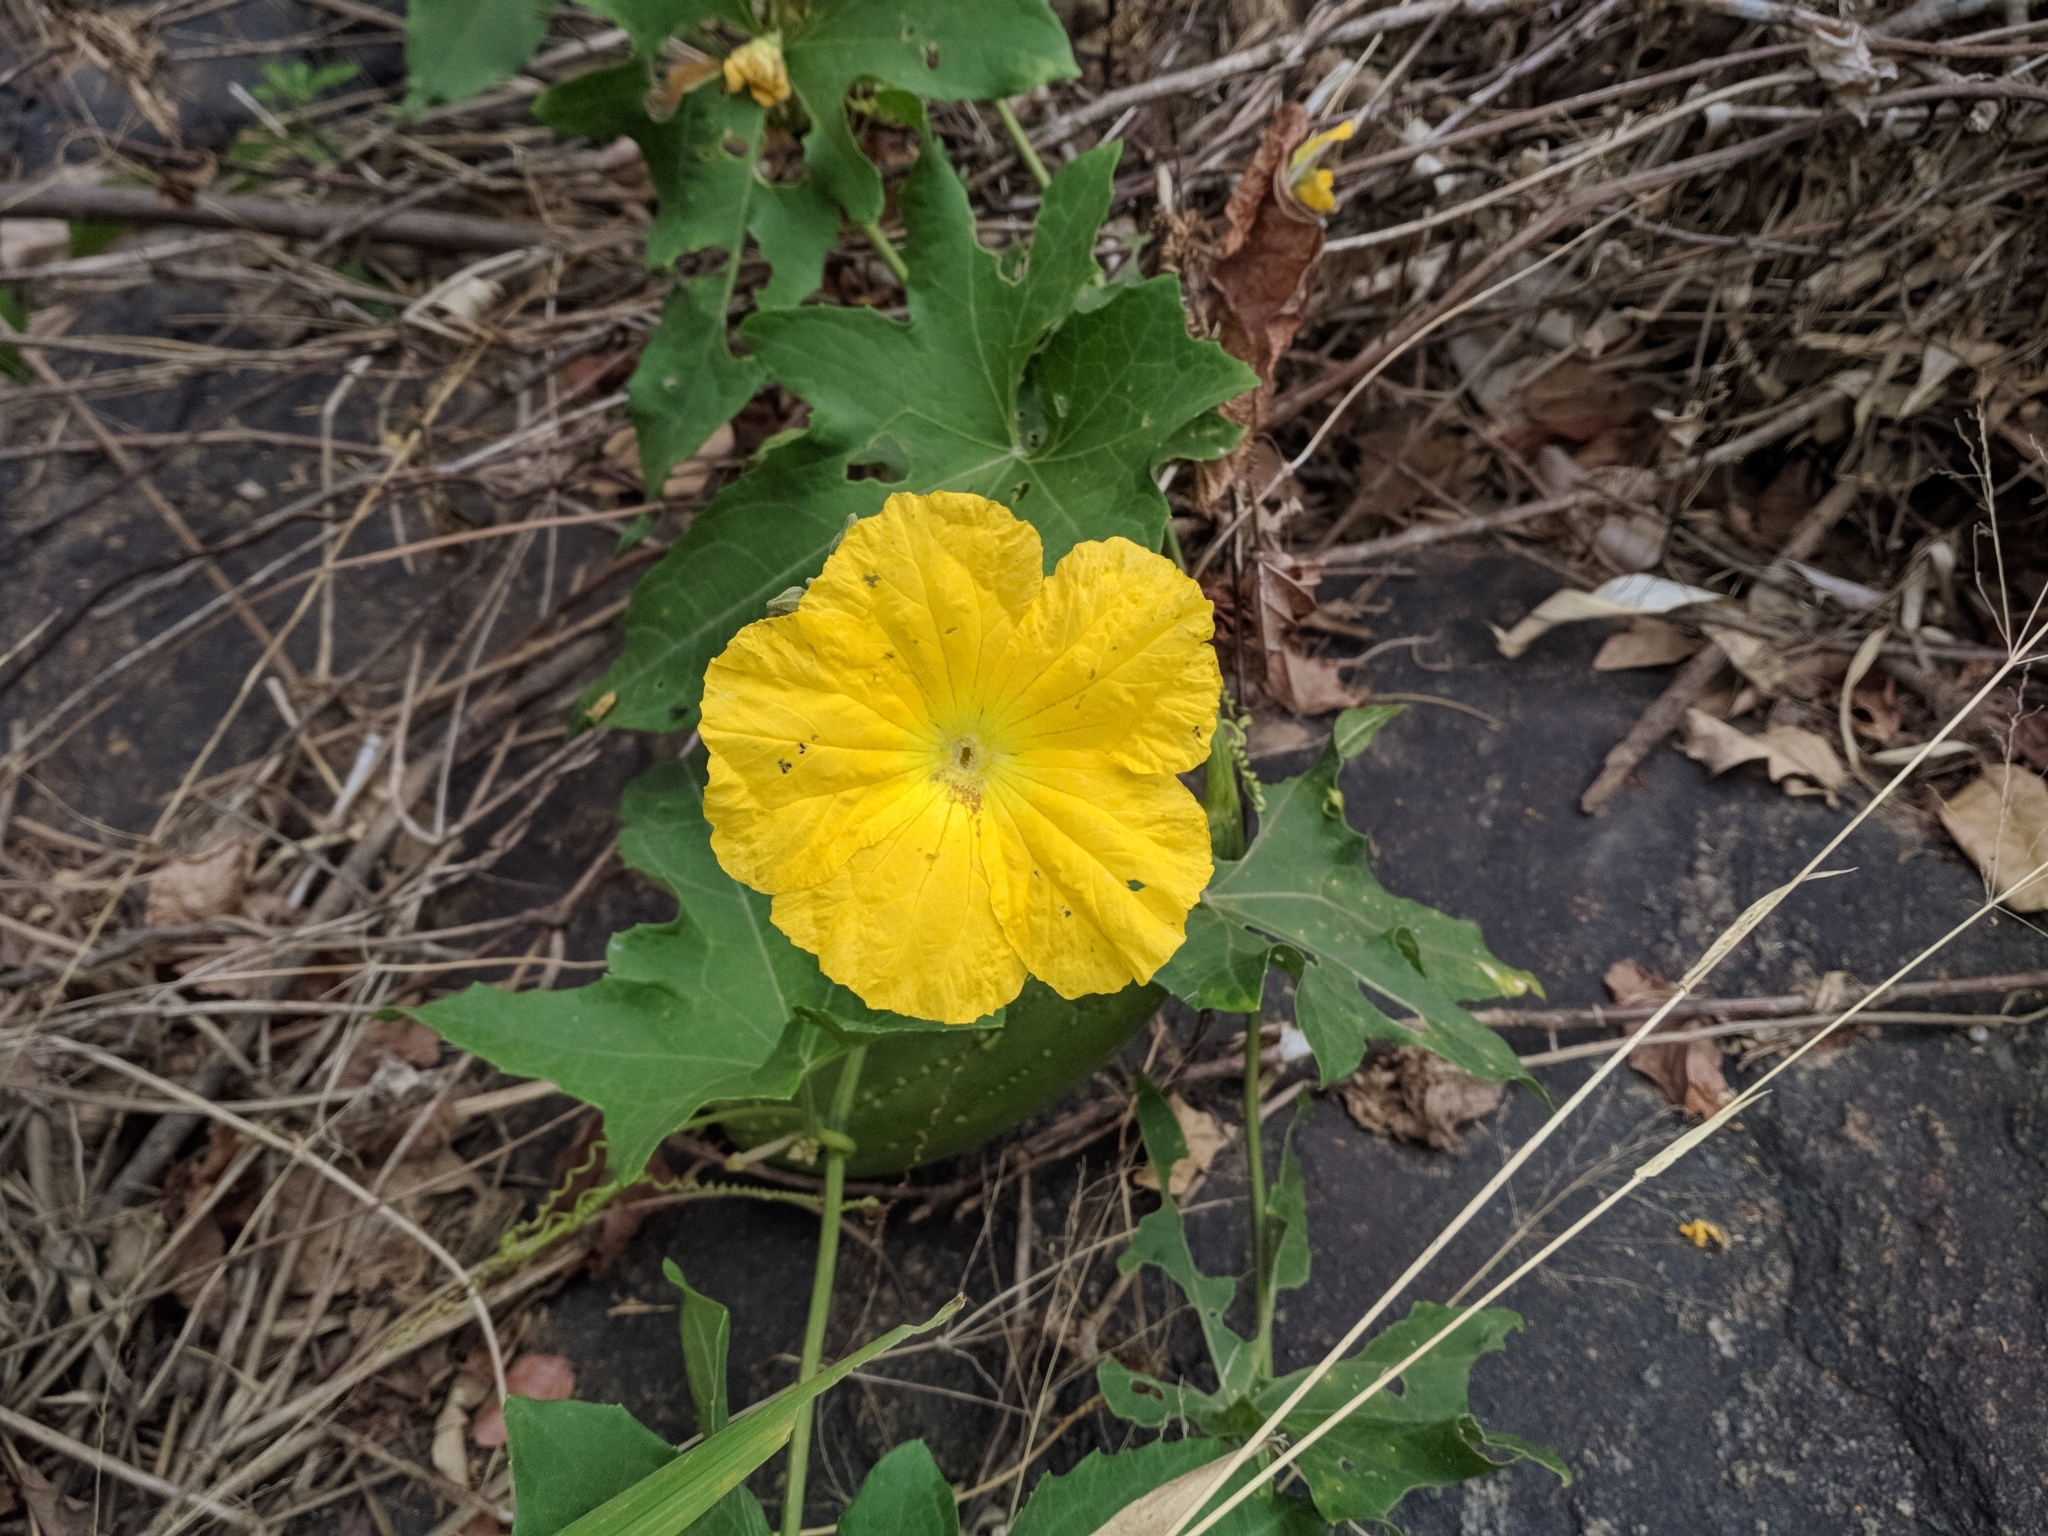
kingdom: Plantae
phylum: Tracheophyta
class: Magnoliopsida
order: Cucurbitales
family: Cucurbitaceae
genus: Luffa
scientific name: Luffa aegyptiaca
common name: Sponge gourd
